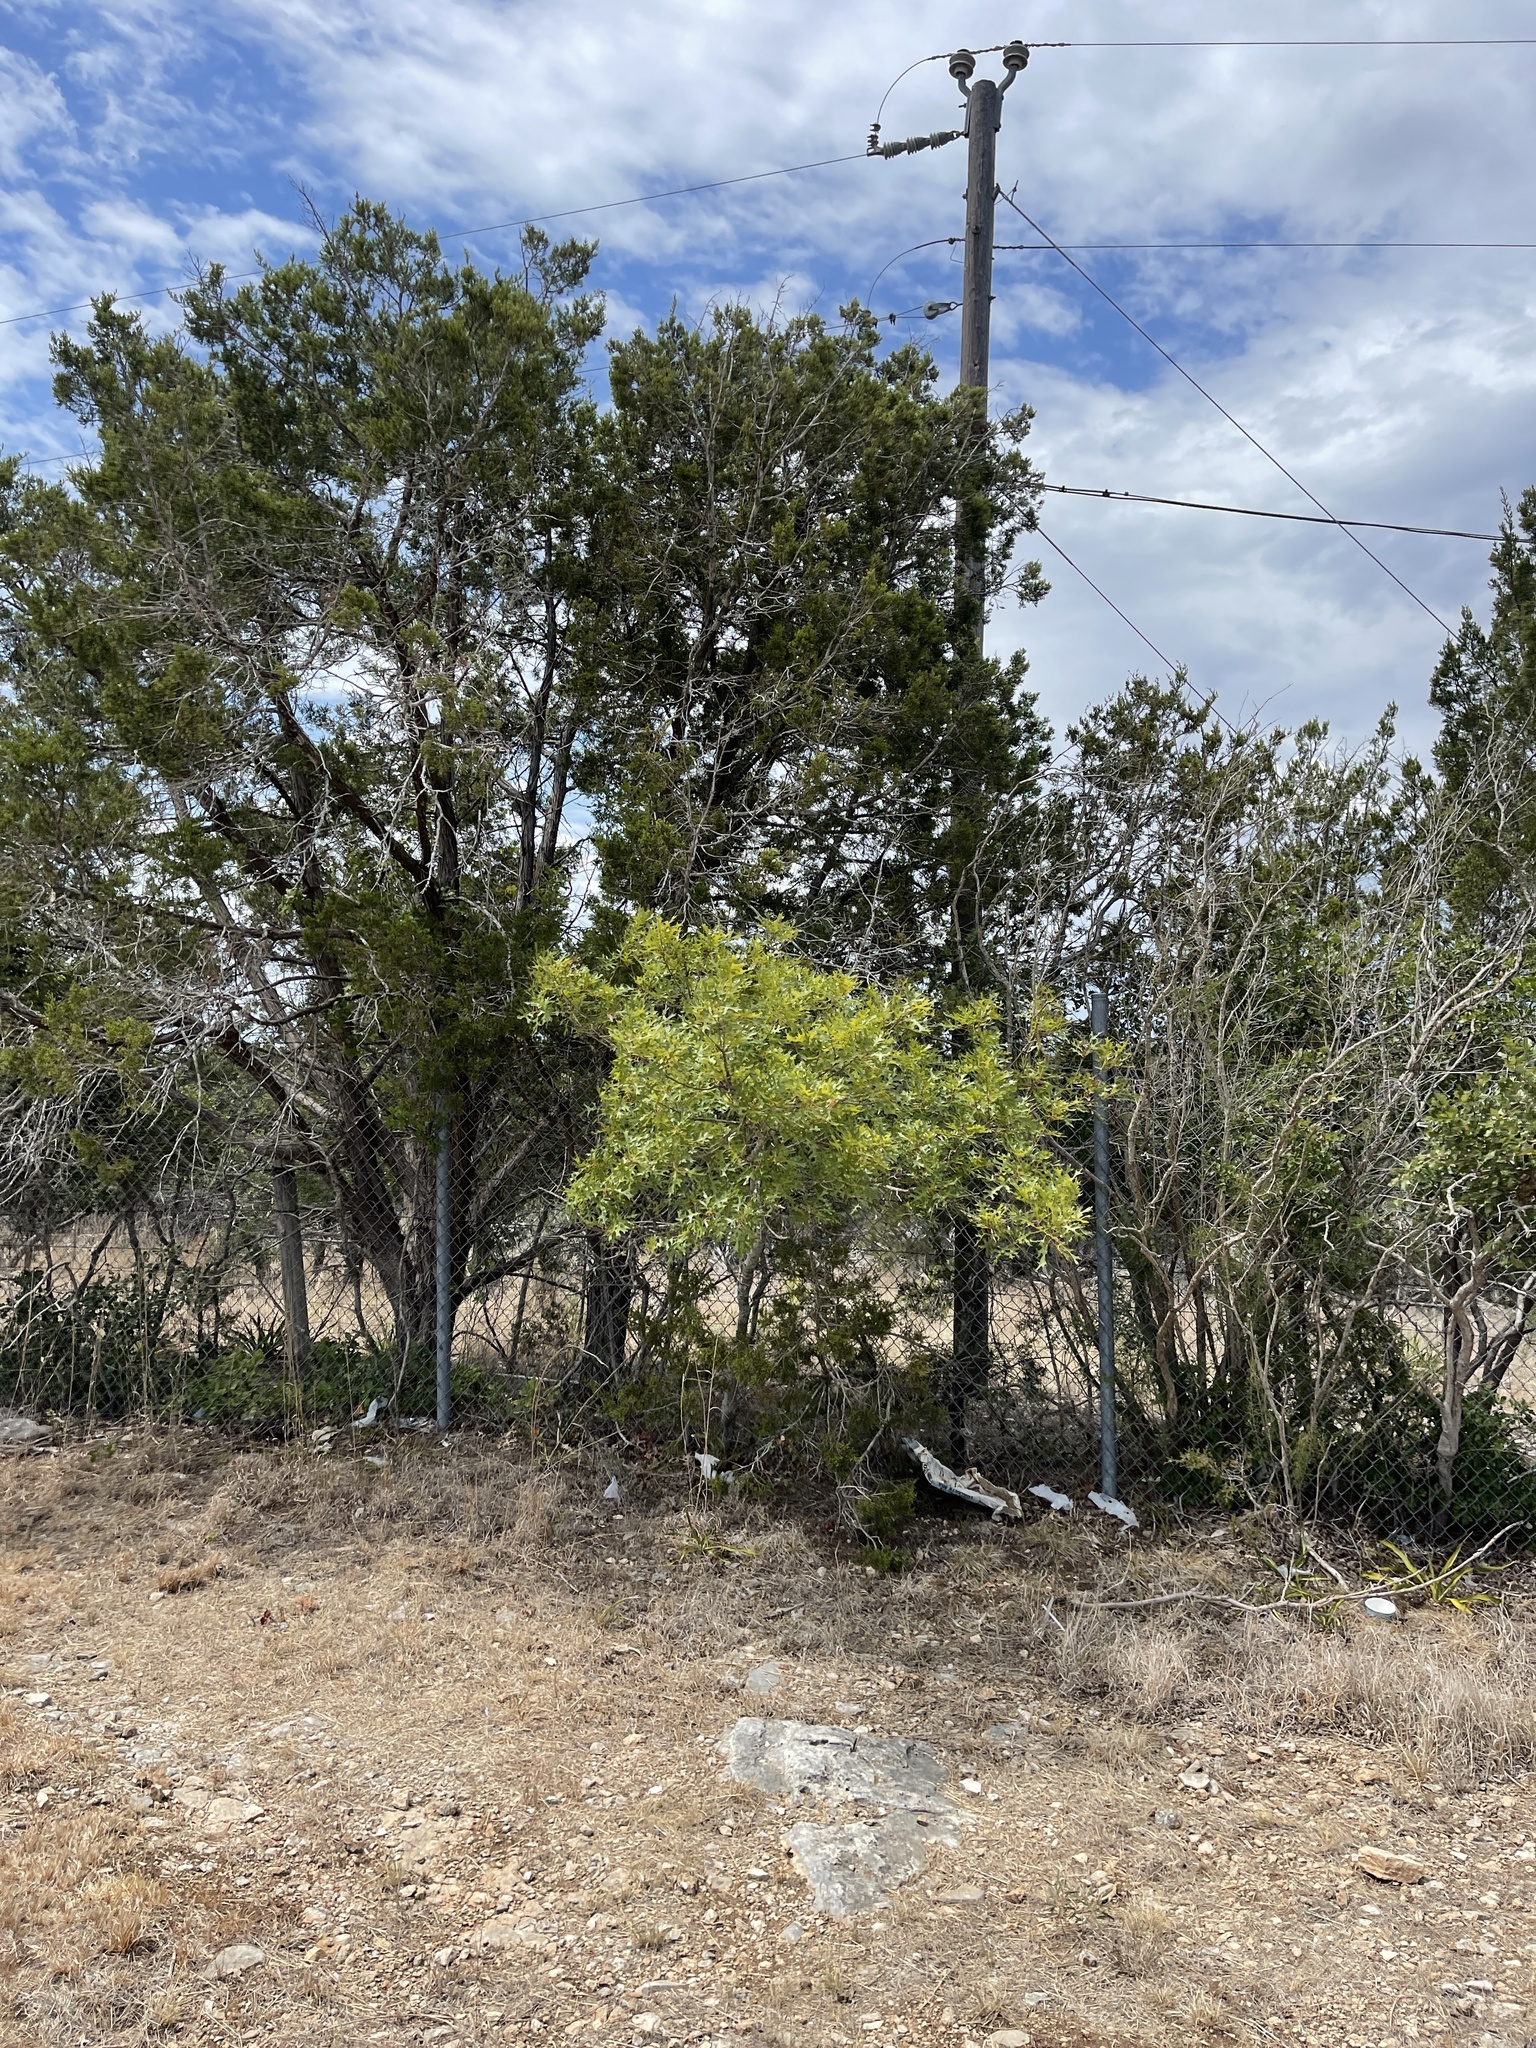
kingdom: Plantae
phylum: Tracheophyta
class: Magnoliopsida
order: Fagales
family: Fagaceae
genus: Quercus
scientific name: Quercus buckleyi
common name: Buckley oak
